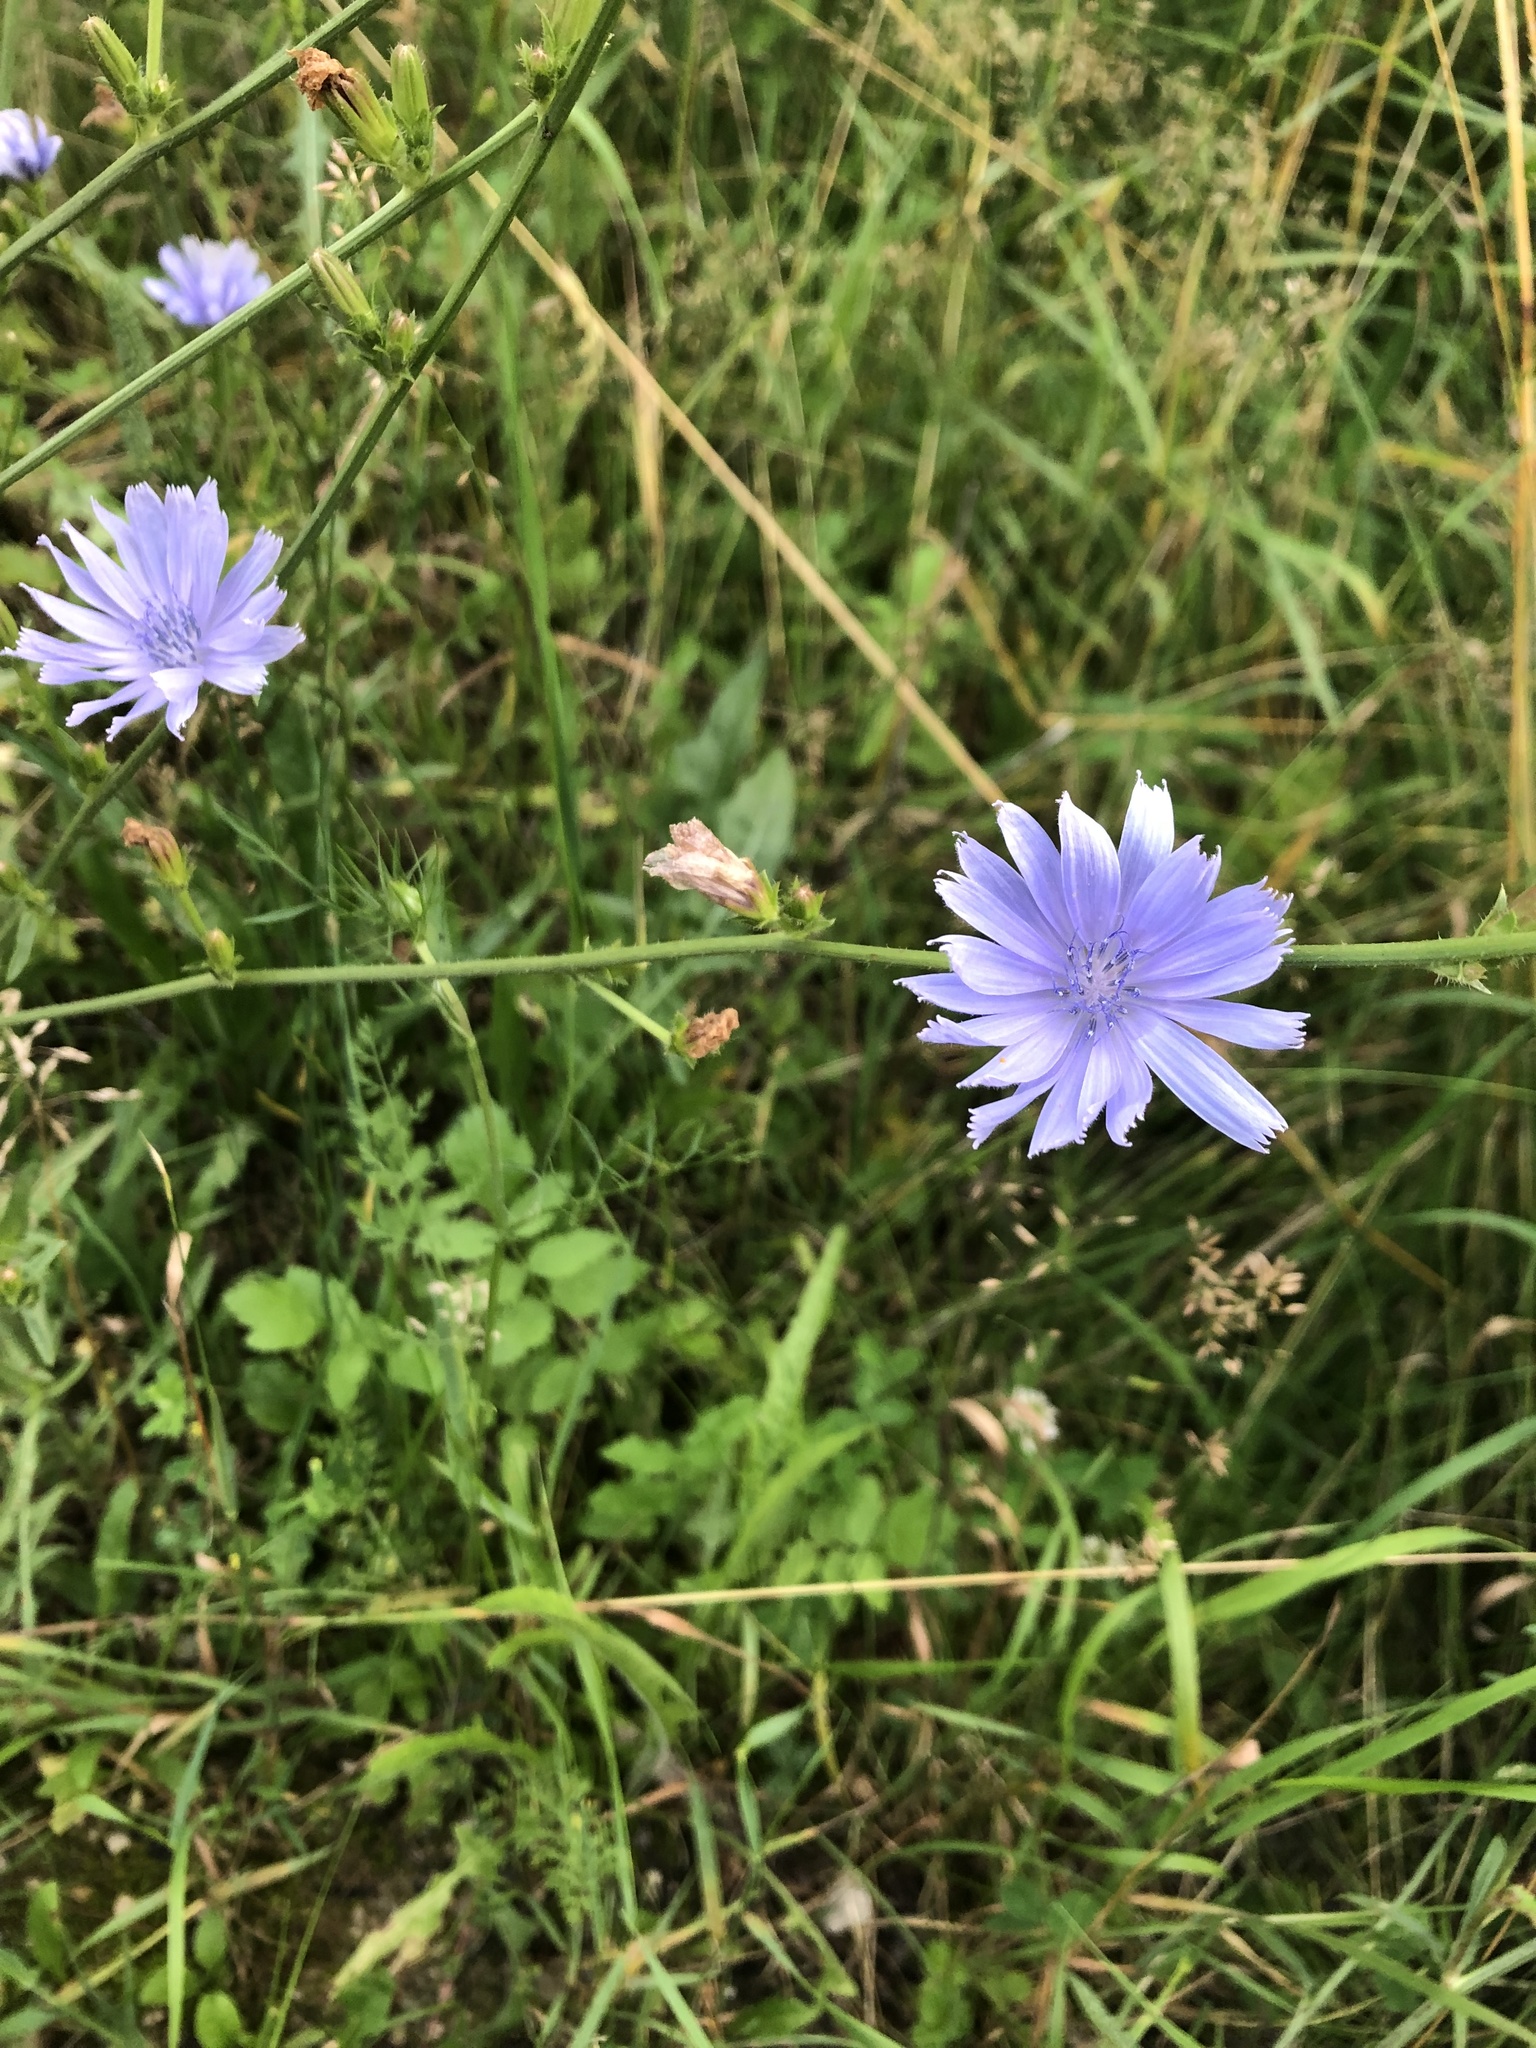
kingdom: Plantae
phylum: Tracheophyta
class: Magnoliopsida
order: Asterales
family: Asteraceae
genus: Cichorium
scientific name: Cichorium intybus
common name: Chicory
